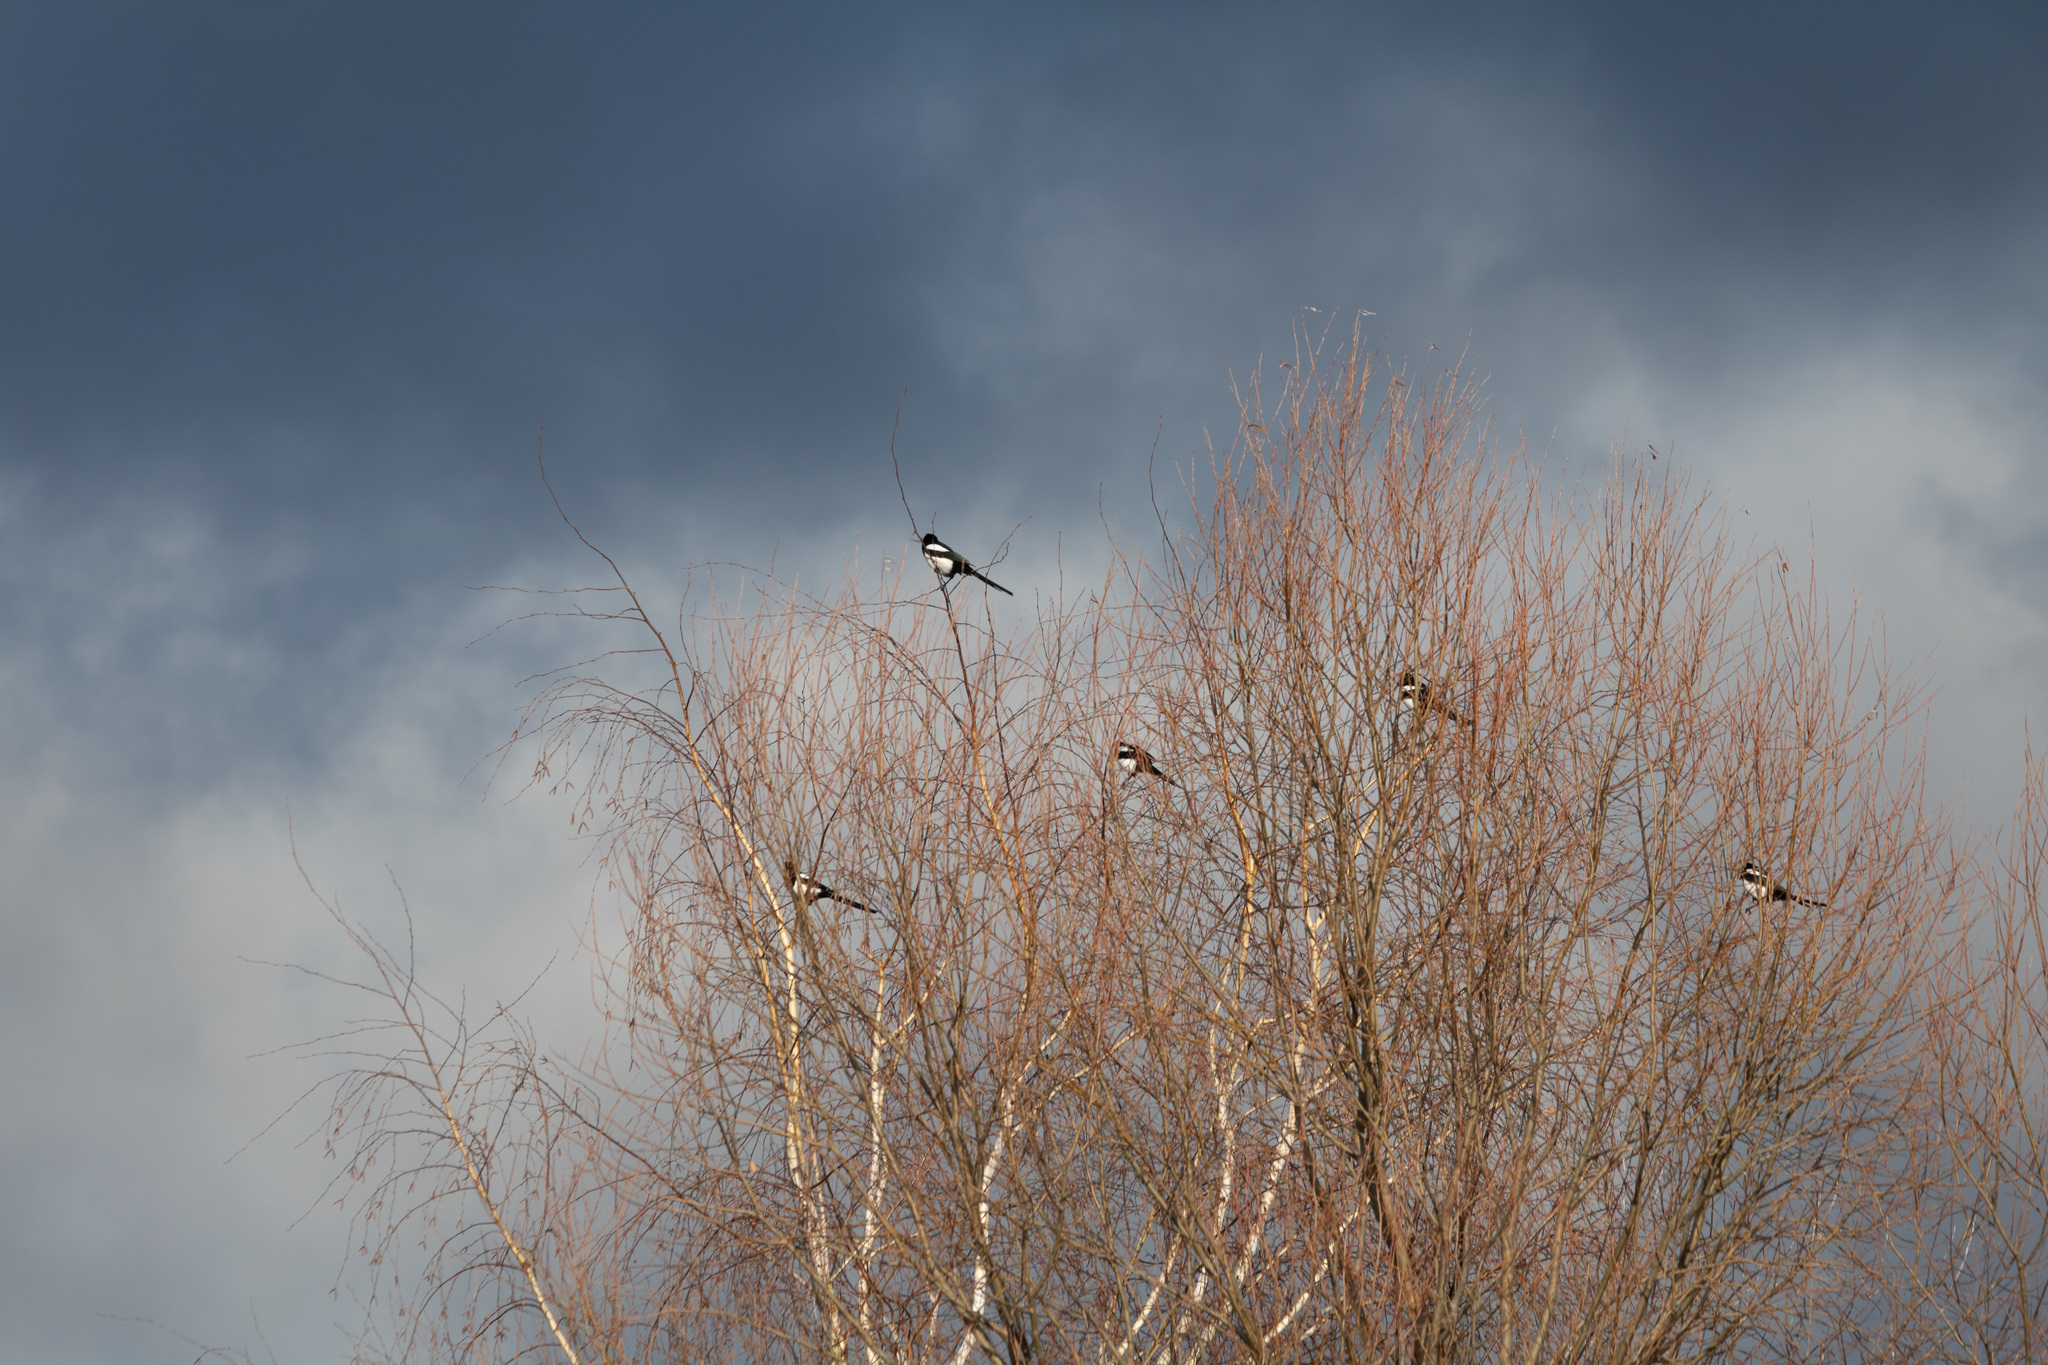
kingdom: Animalia
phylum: Chordata
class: Aves
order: Passeriformes
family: Corvidae
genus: Pica
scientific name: Pica pica
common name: Eurasian magpie
